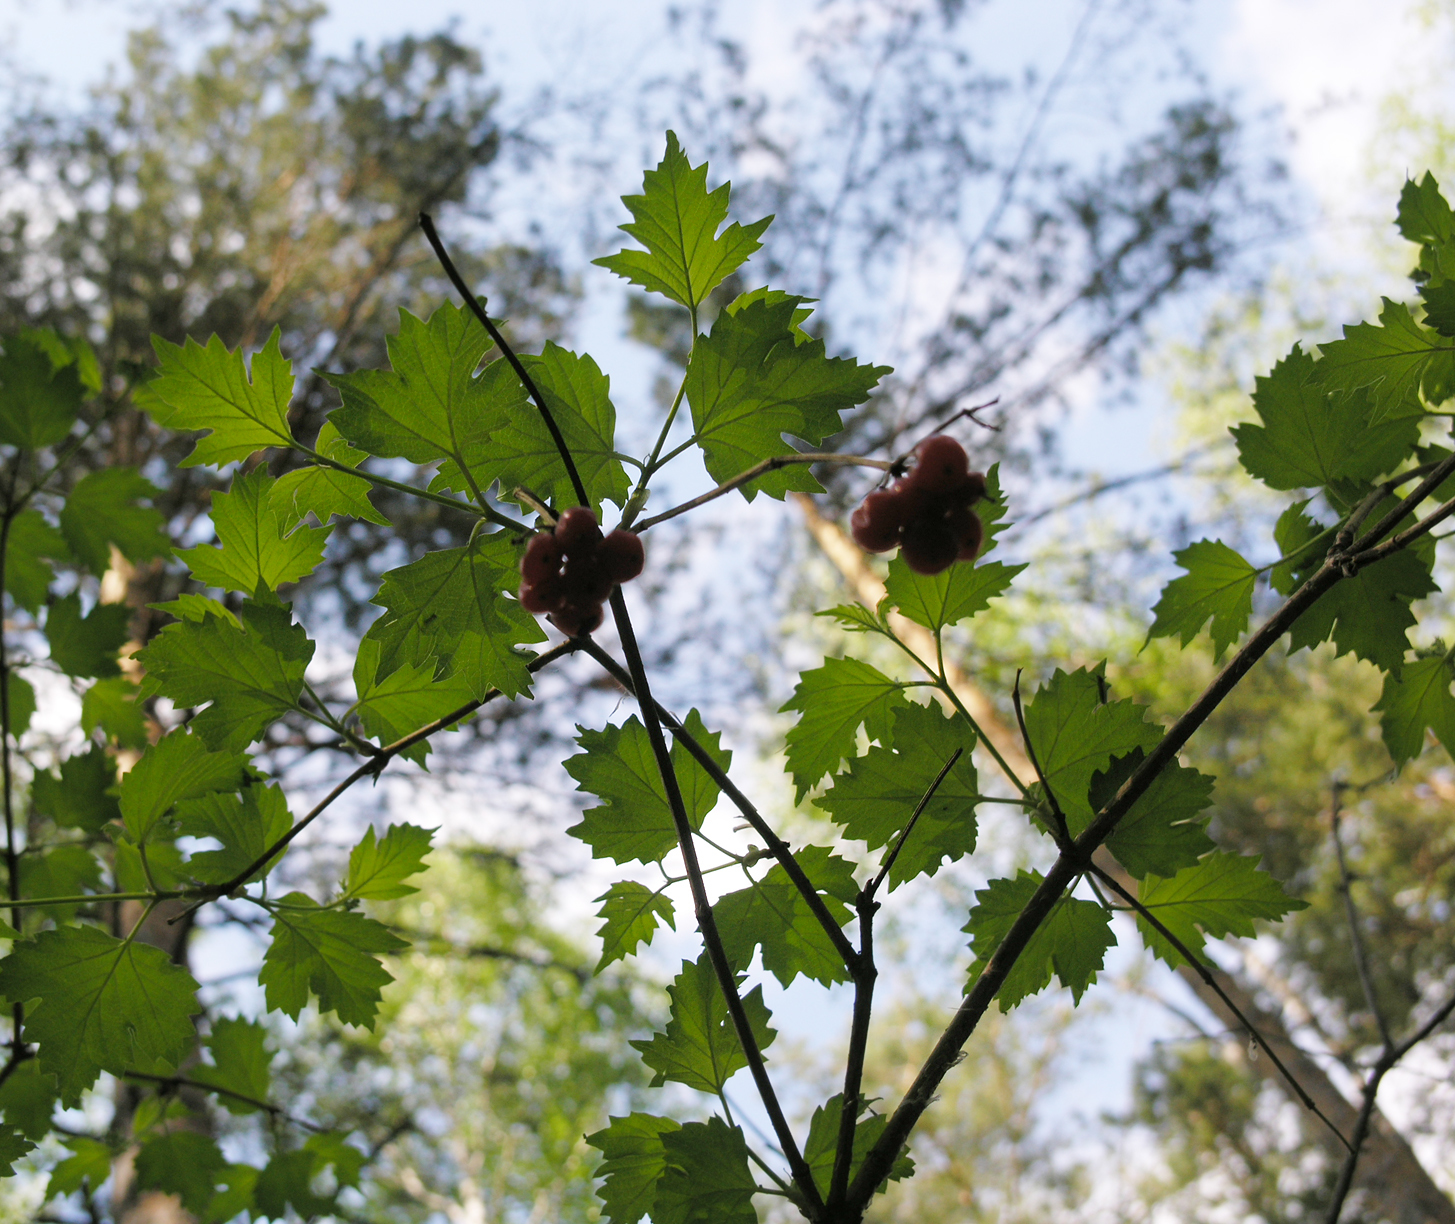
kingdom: Plantae
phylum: Tracheophyta
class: Magnoliopsida
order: Dipsacales
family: Viburnaceae
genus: Viburnum
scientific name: Viburnum opulus
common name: Guelder-rose
